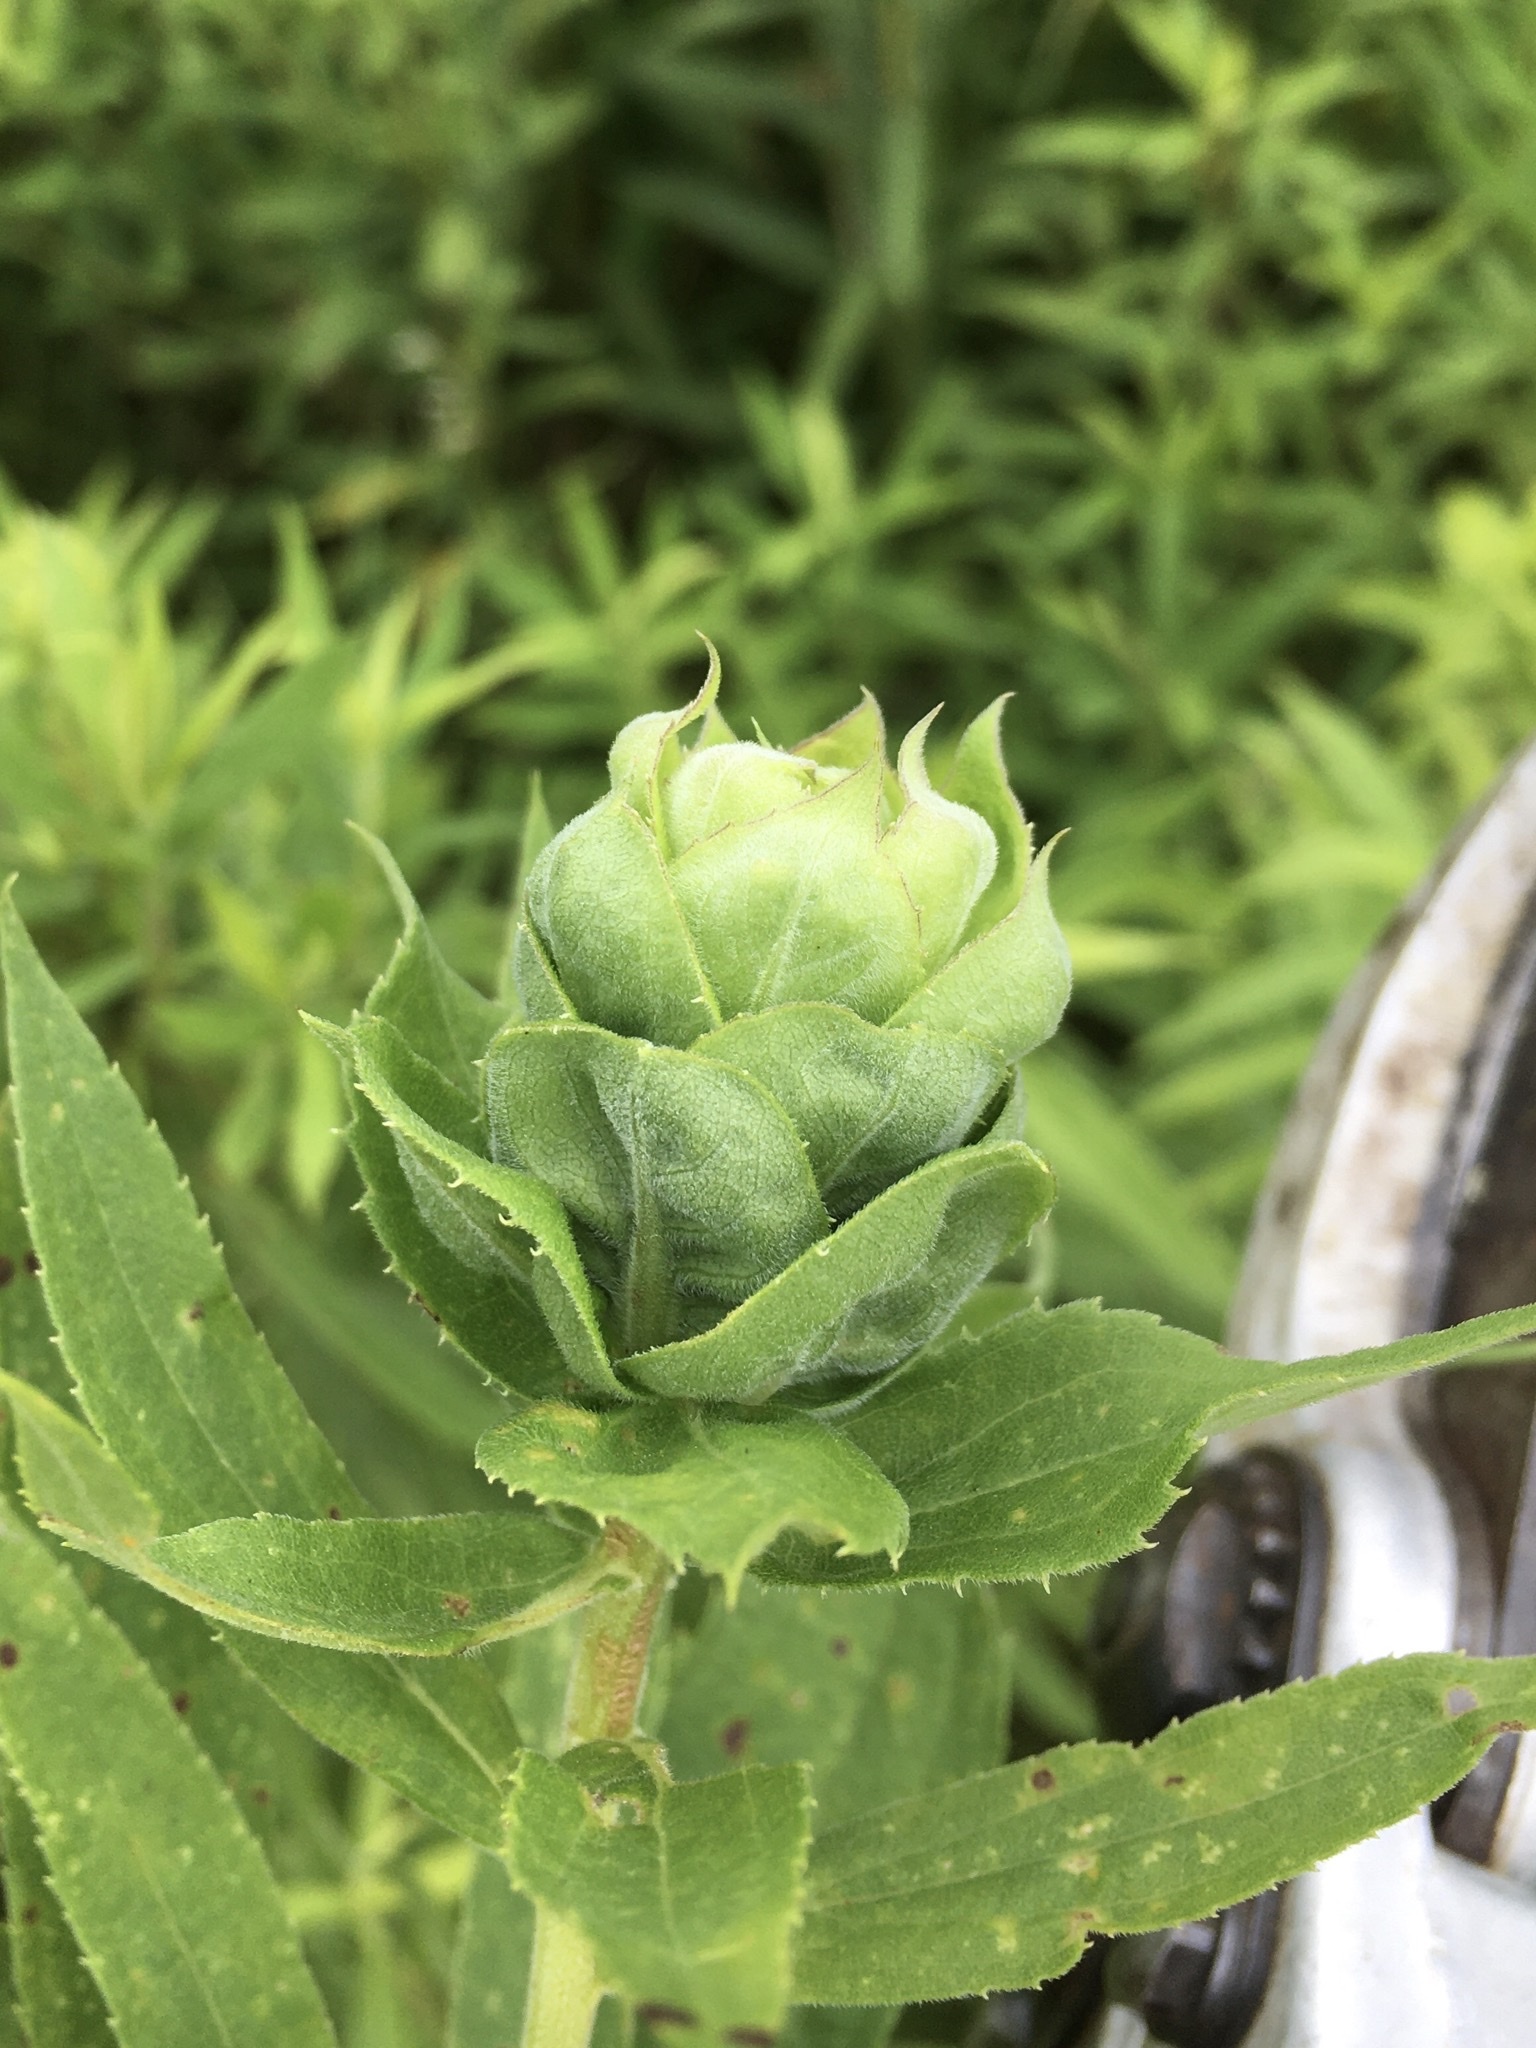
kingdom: Animalia
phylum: Arthropoda
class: Insecta
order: Diptera
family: Cecidomyiidae
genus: Rhopalomyia
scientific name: Rhopalomyia solidaginis
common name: Goldenrod bunch gall midge
